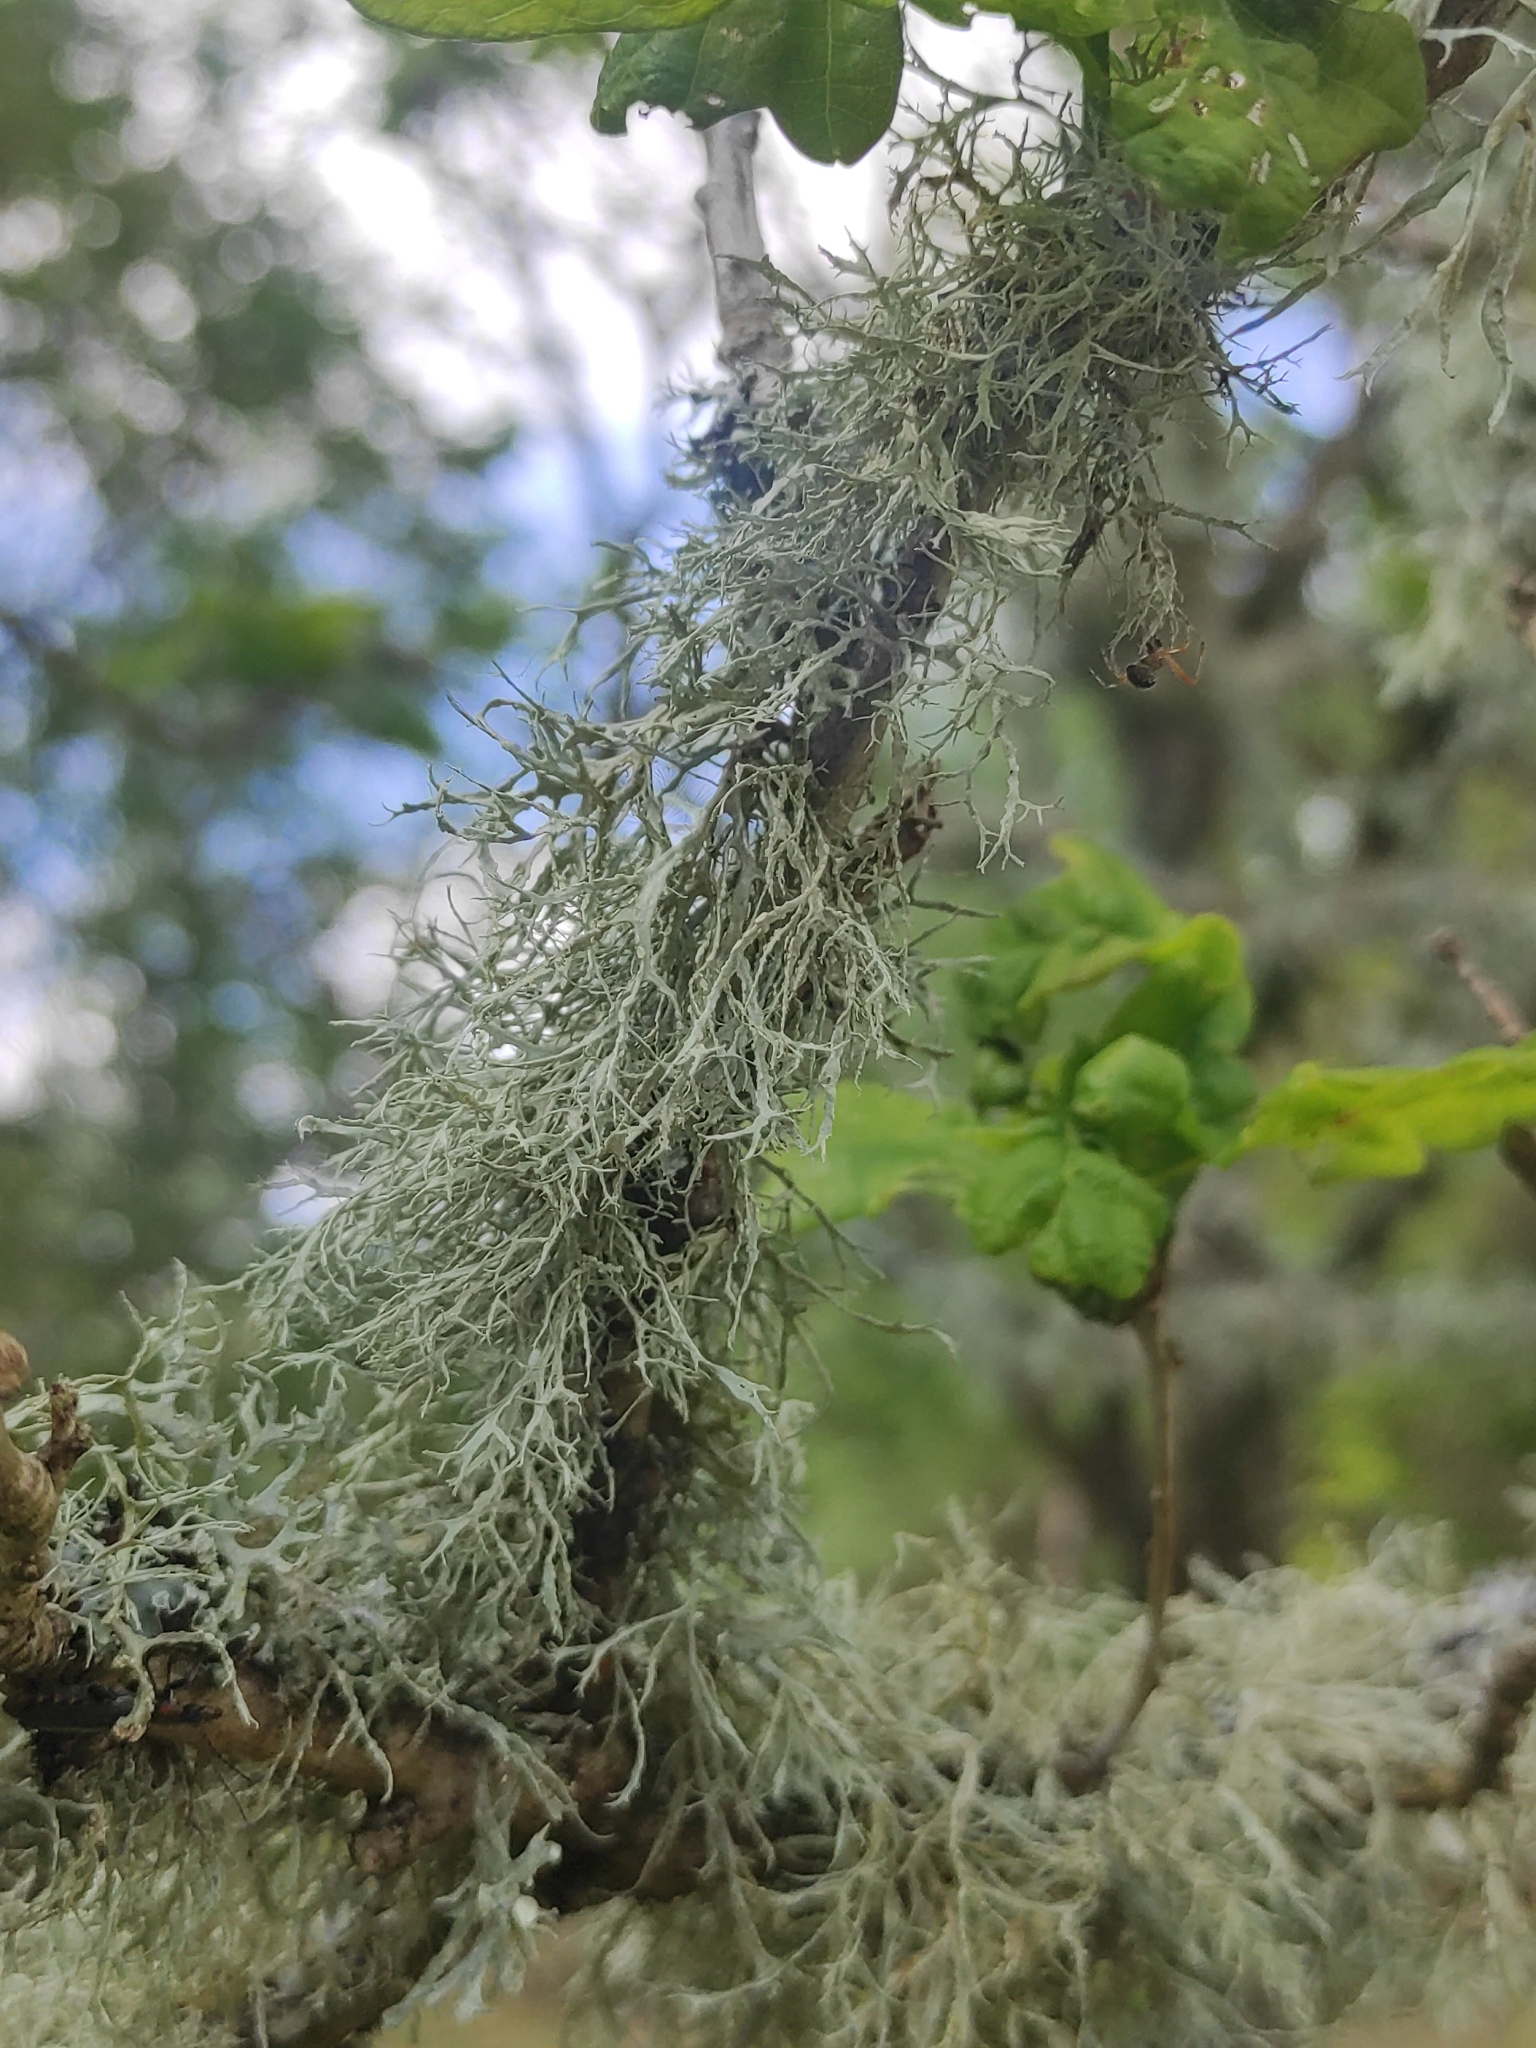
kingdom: Fungi
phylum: Ascomycota
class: Lecanoromycetes
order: Lecanorales
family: Ramalinaceae
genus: Ramalina
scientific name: Ramalina farinacea
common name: Farinose cartilage lichen
